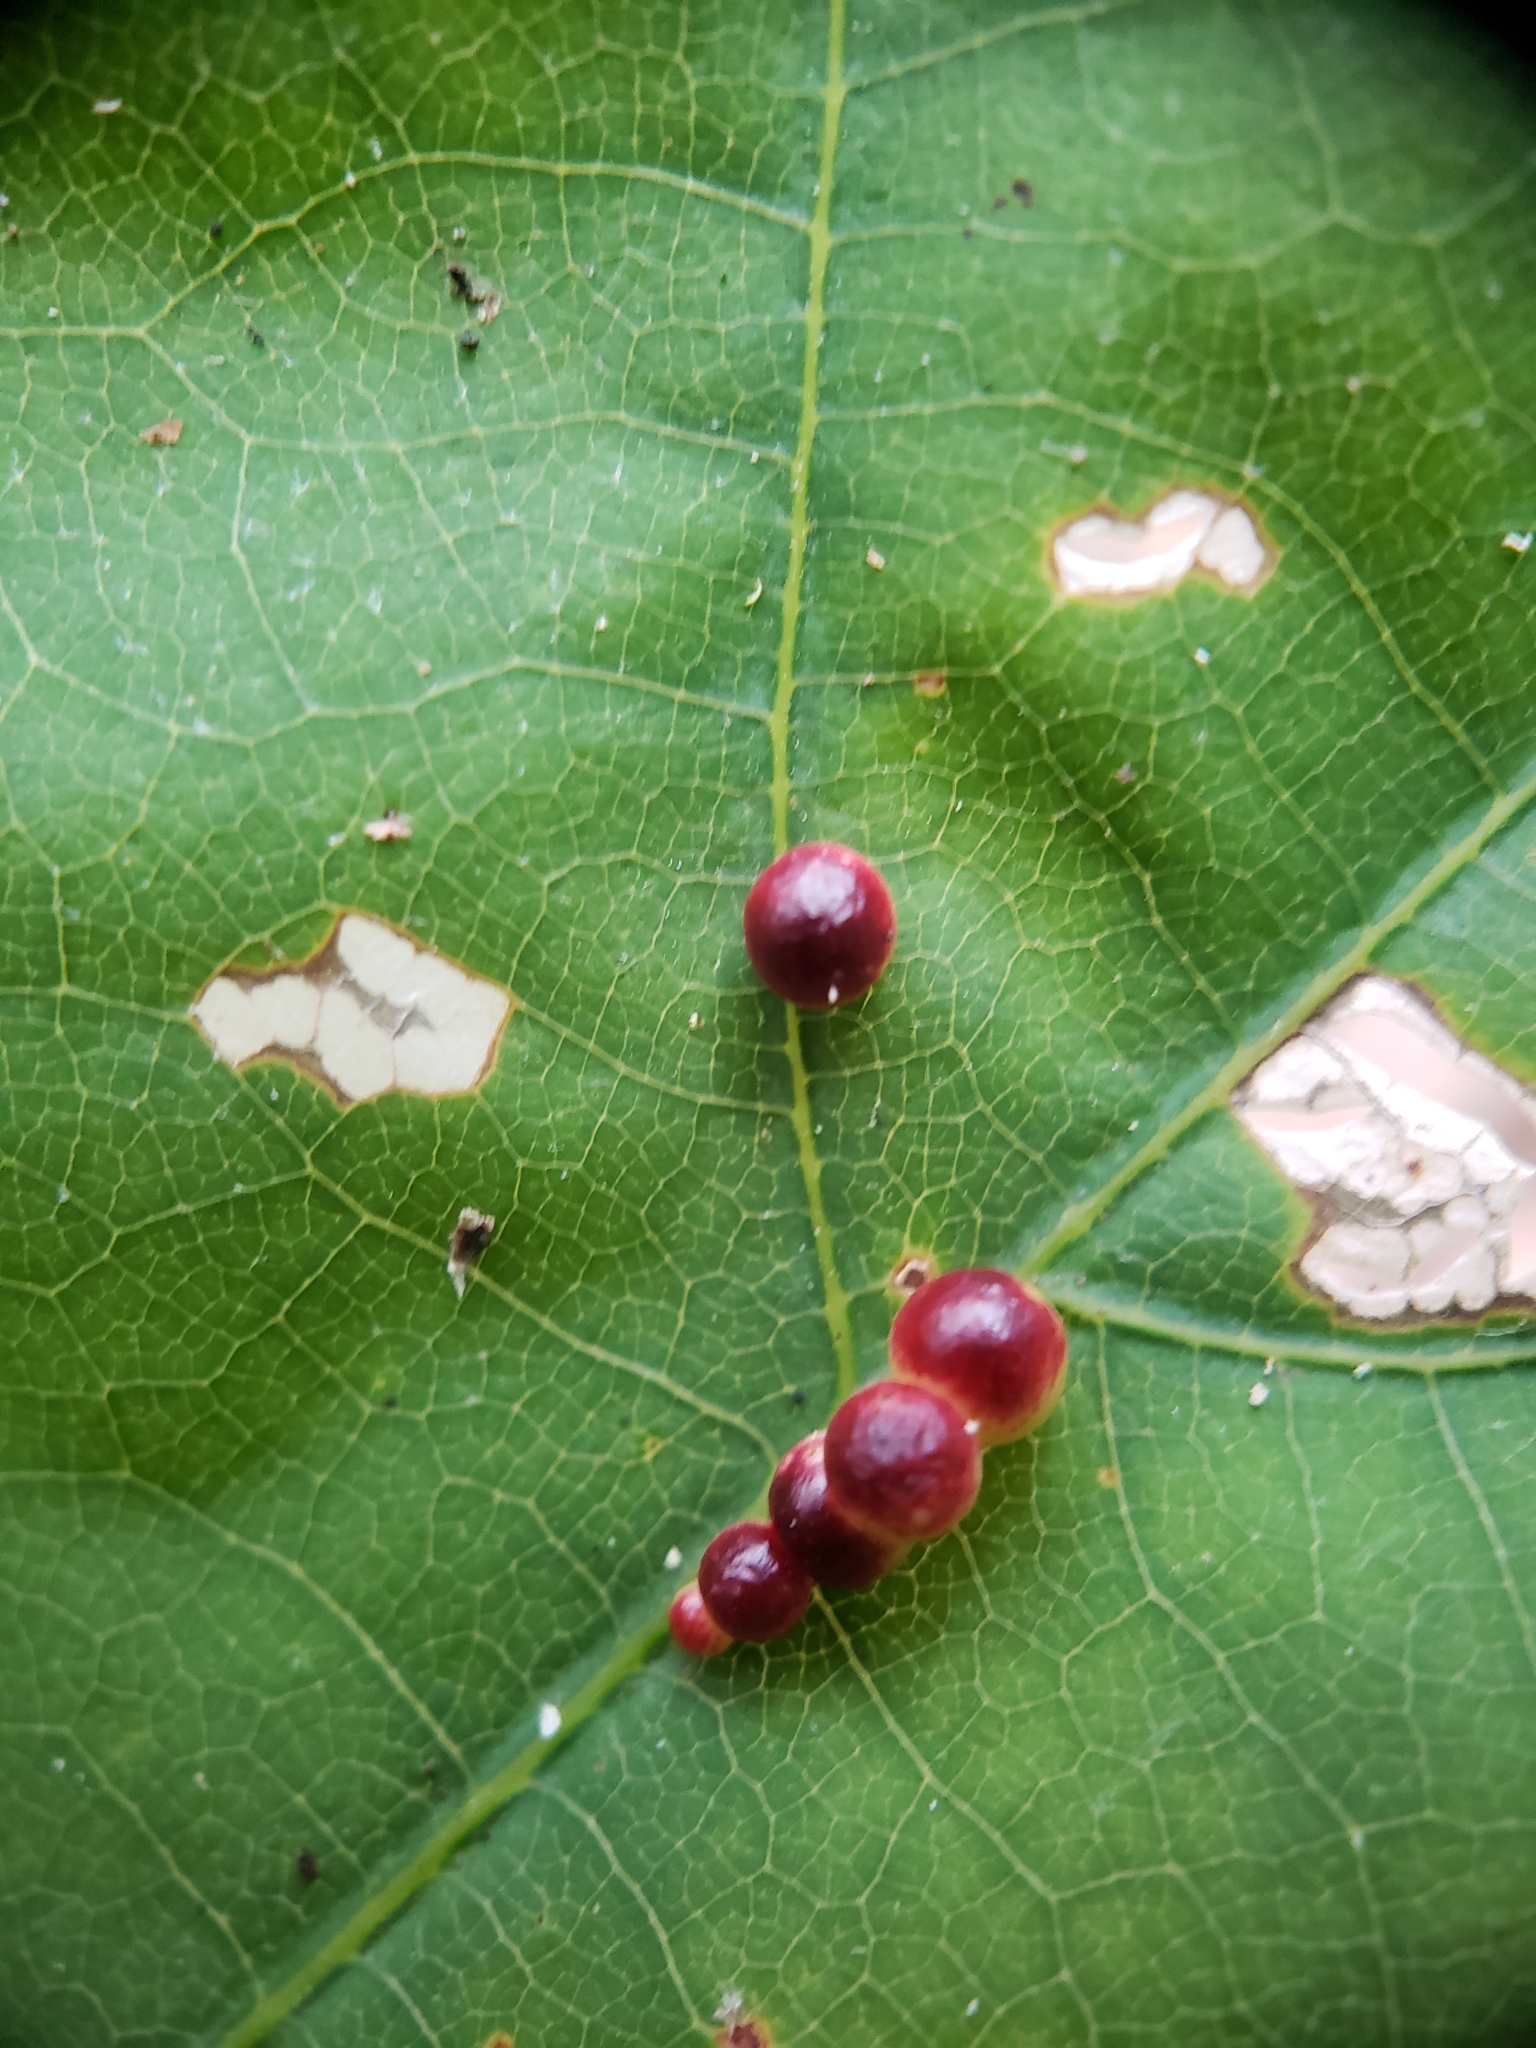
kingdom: Animalia
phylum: Arthropoda
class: Insecta
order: Hymenoptera
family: Cynipidae
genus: Zopheroteras
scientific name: Zopheroteras
